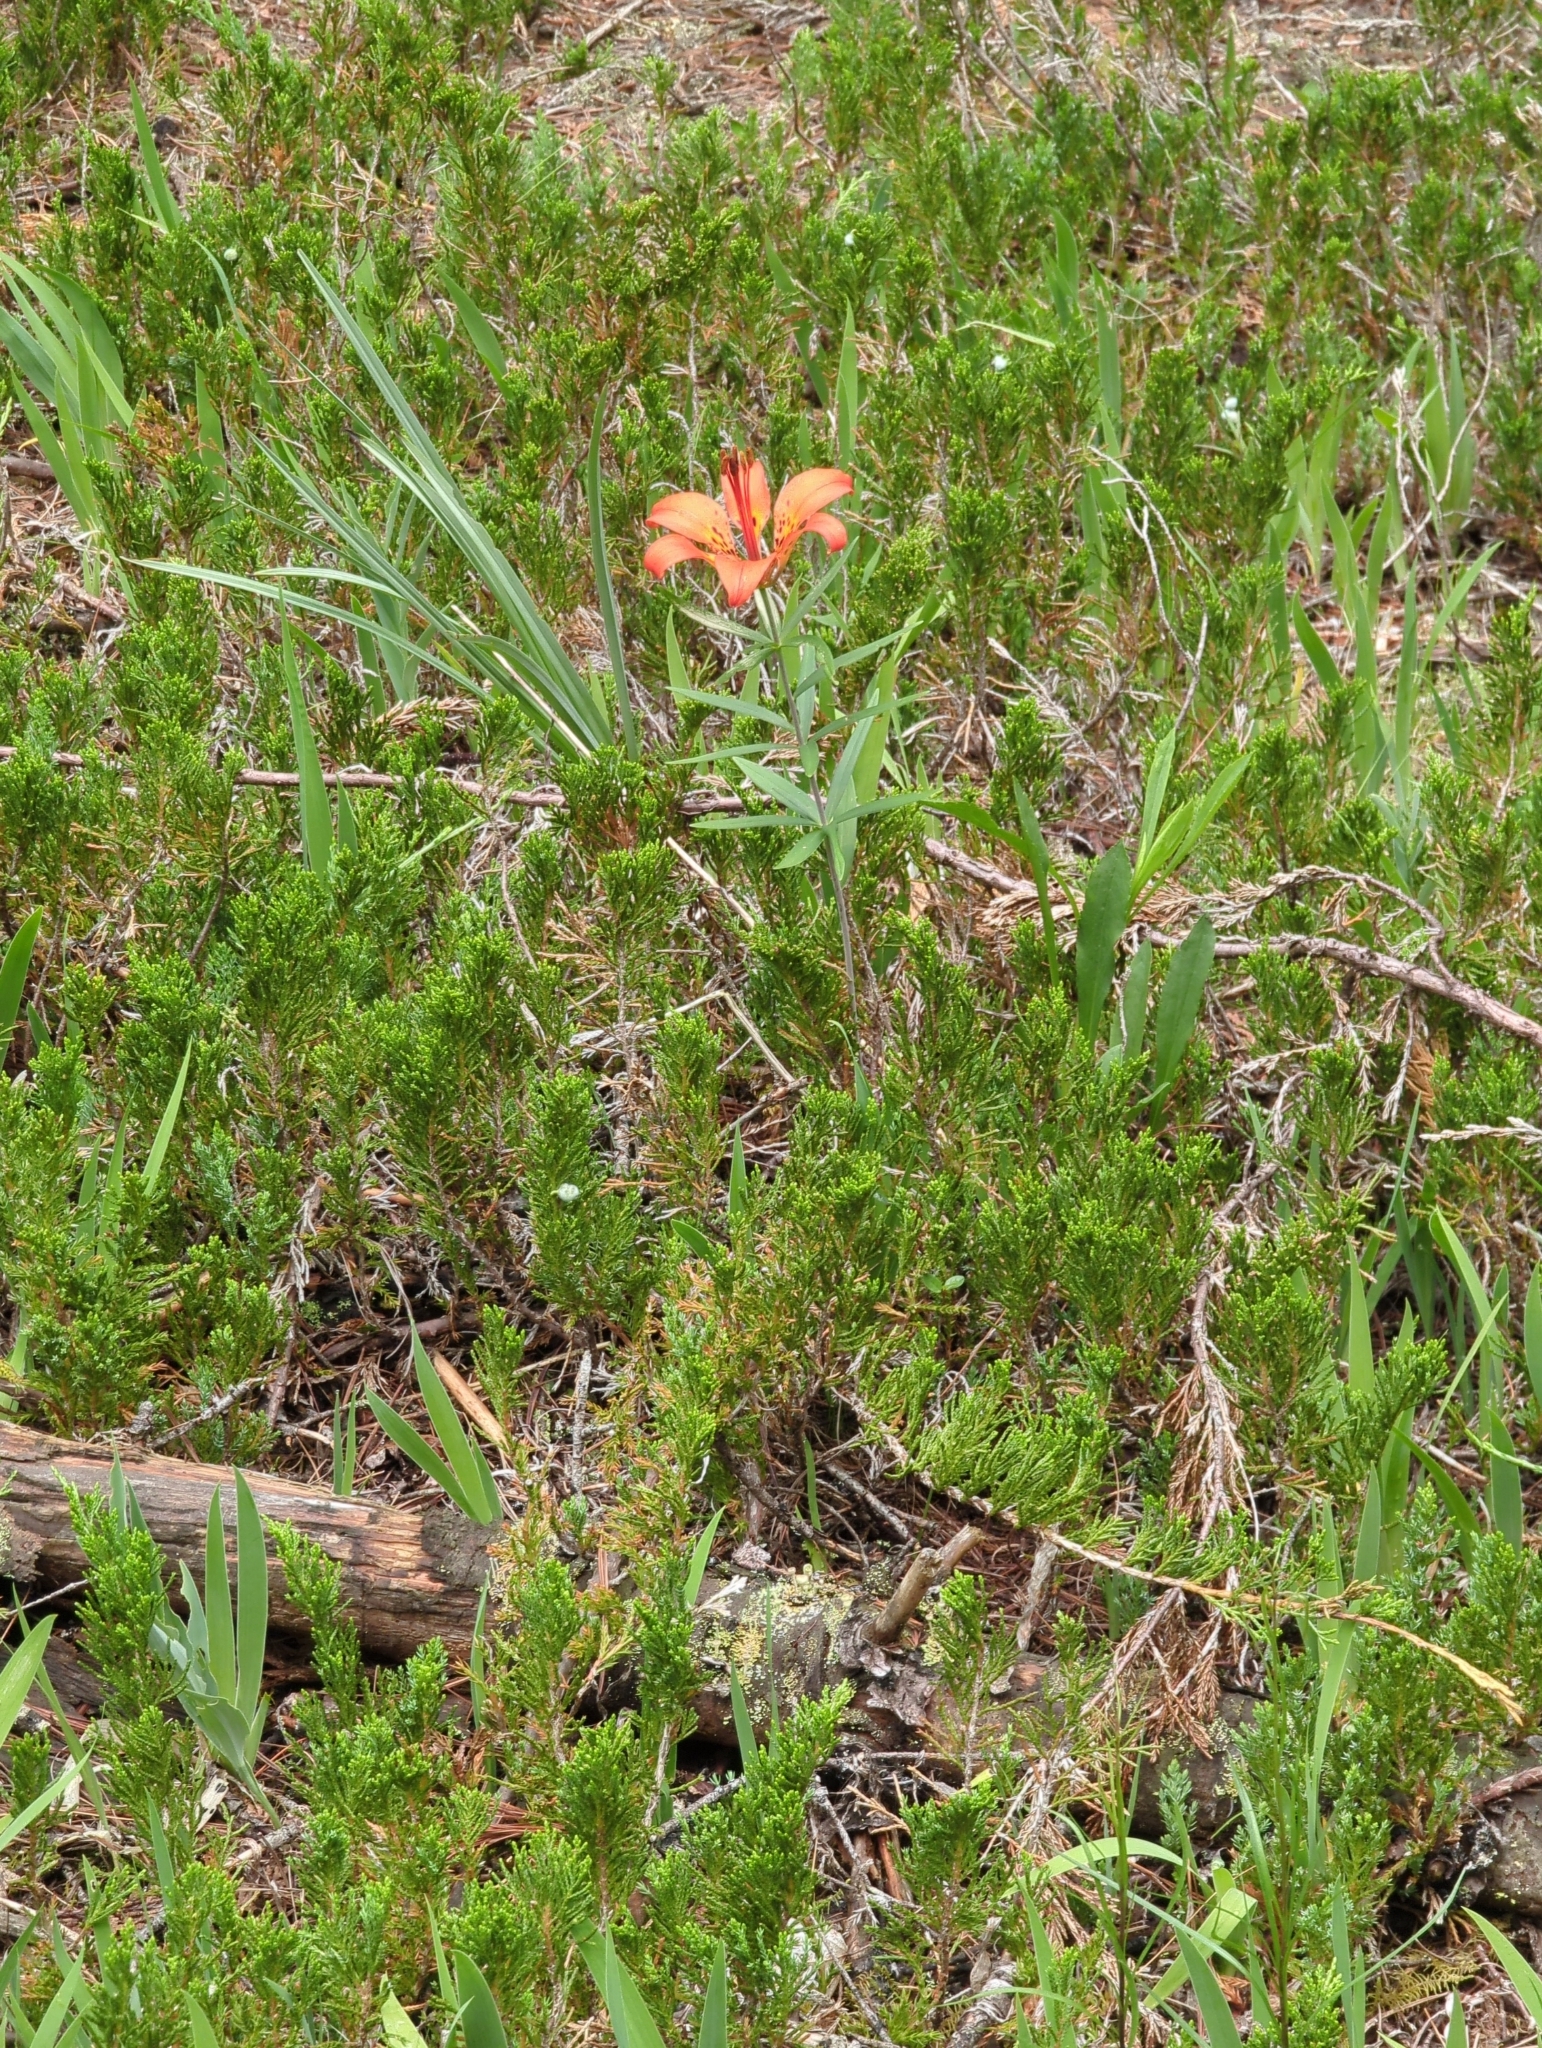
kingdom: Plantae
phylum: Tracheophyta
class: Liliopsida
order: Liliales
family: Liliaceae
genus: Lilium
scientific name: Lilium philadelphicum
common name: Red lily
